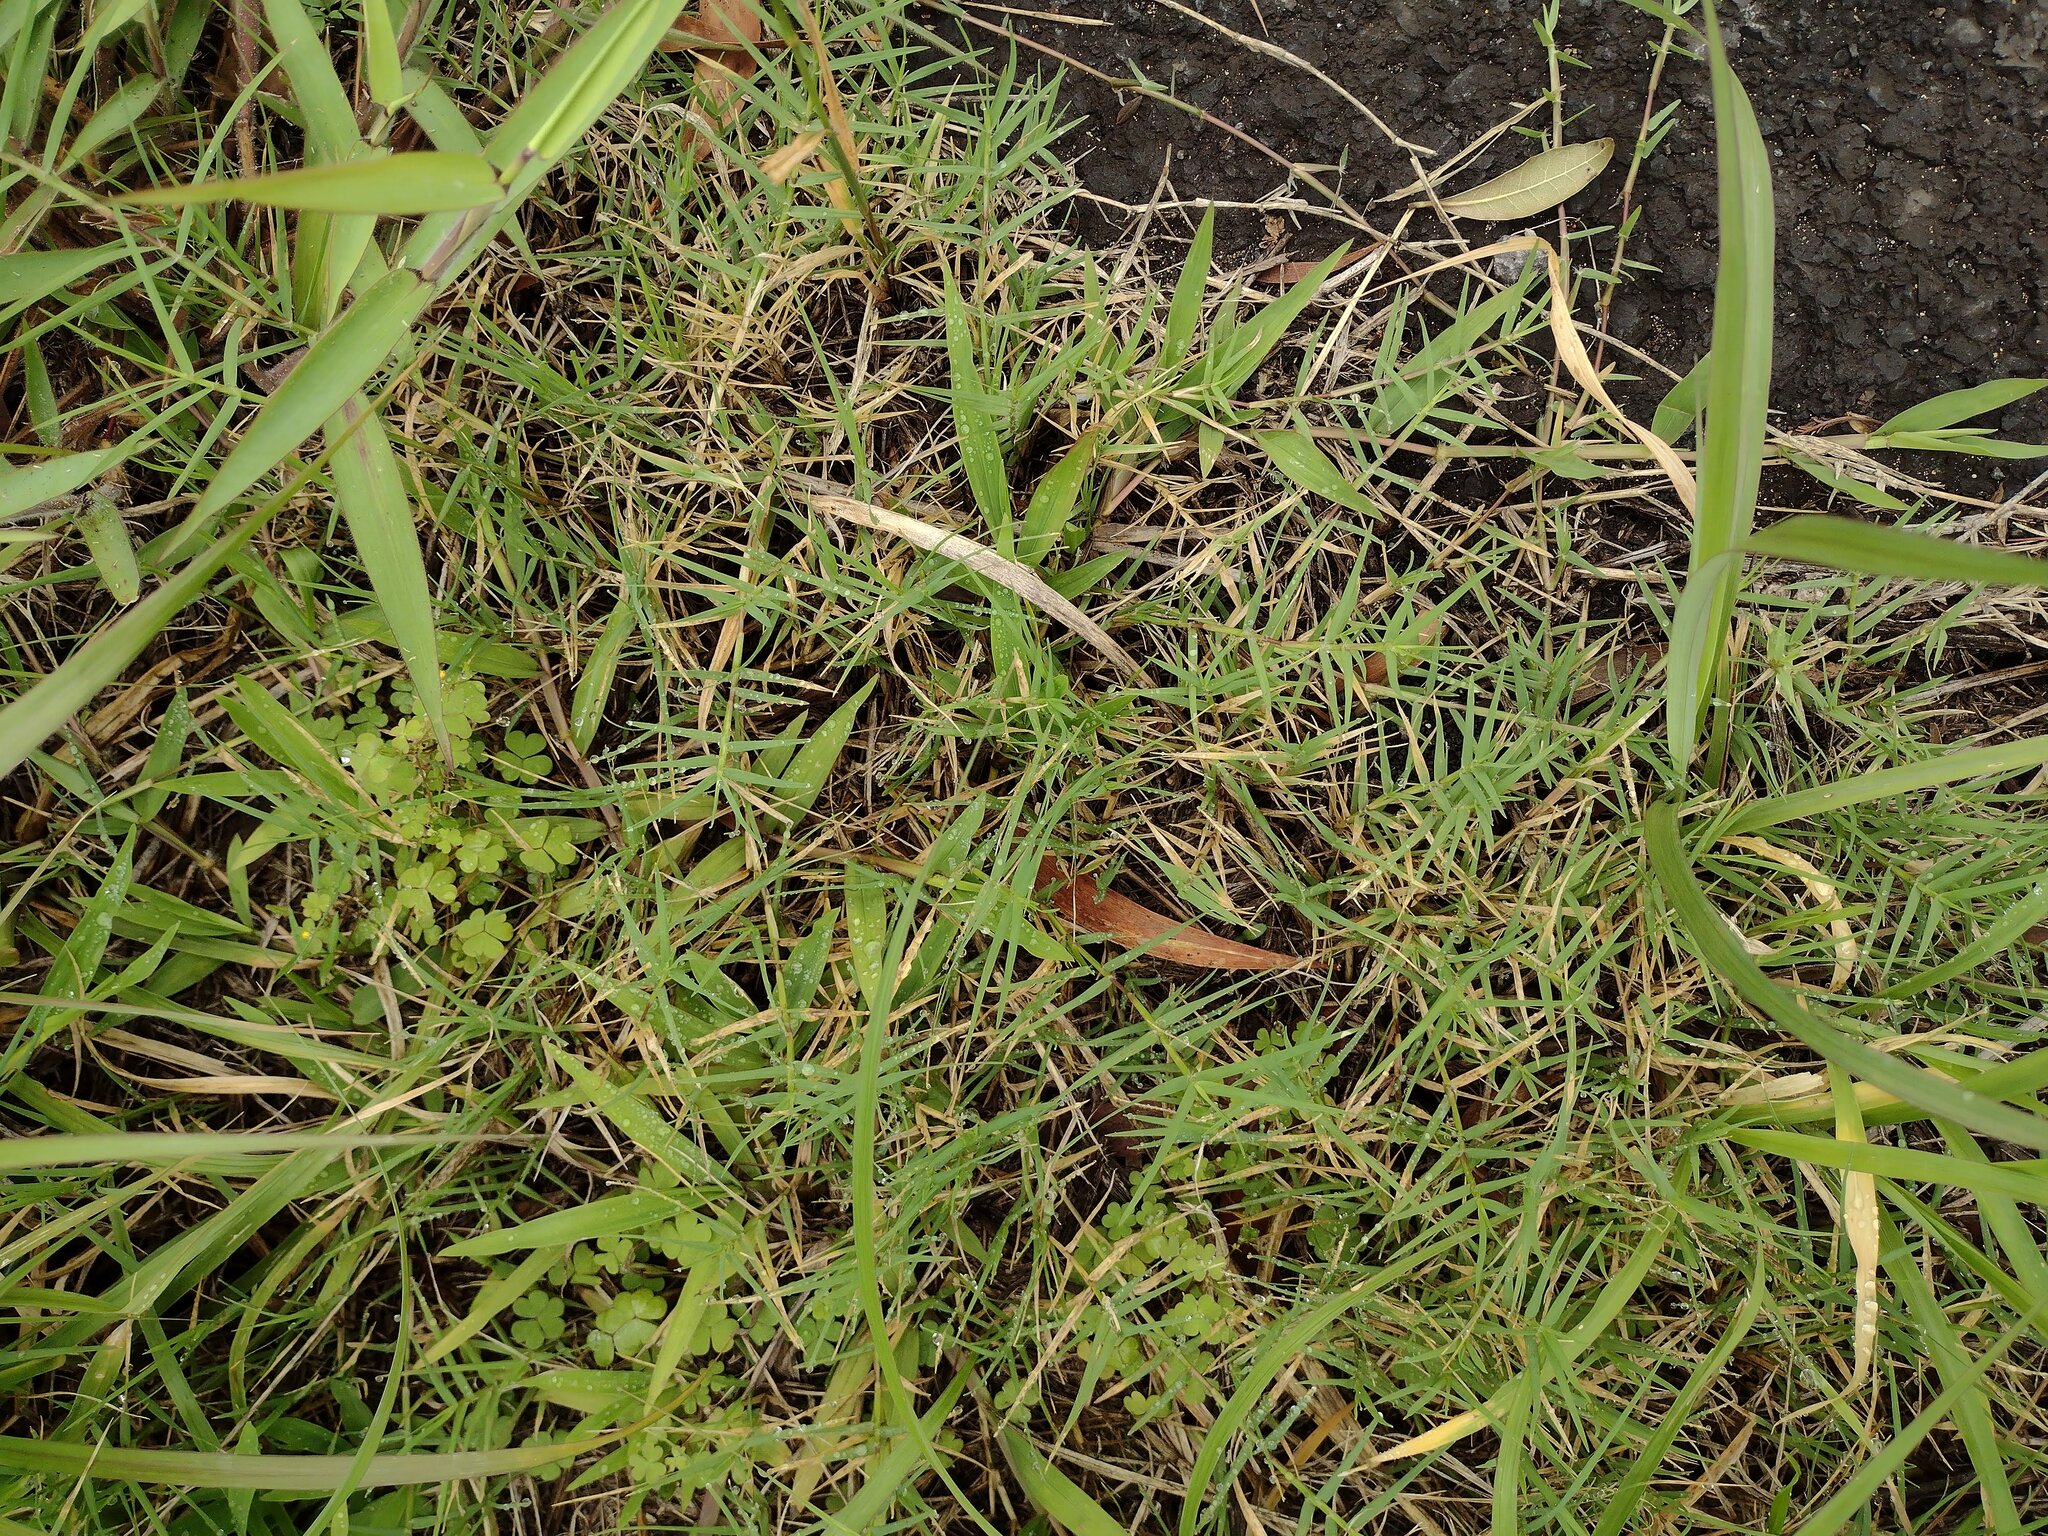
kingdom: Plantae
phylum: Tracheophyta
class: Liliopsida
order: Poales
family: Poaceae
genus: Cynodon
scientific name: Cynodon dactylon
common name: Bermuda grass
